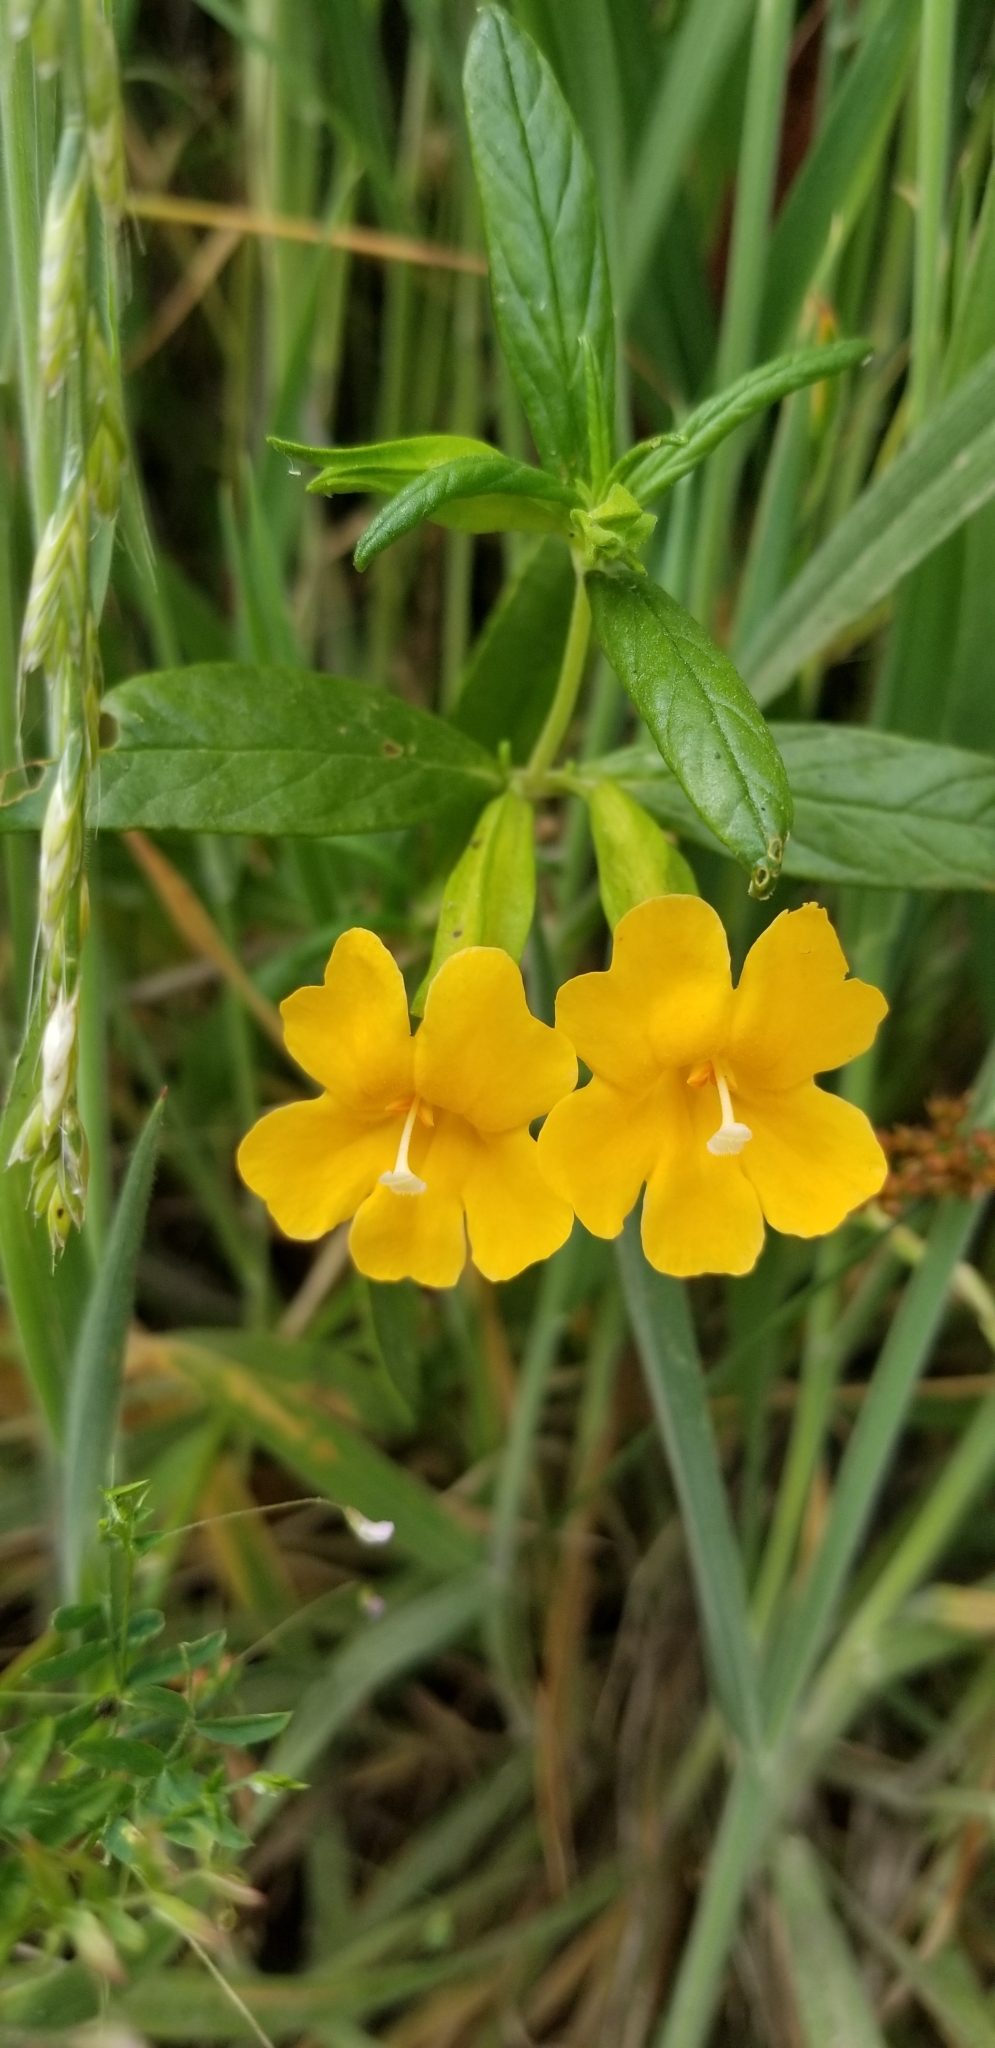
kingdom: Plantae
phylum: Tracheophyta
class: Magnoliopsida
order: Lamiales
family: Phrymaceae
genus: Diplacus
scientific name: Diplacus aurantiacus
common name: Bush monkey-flower
